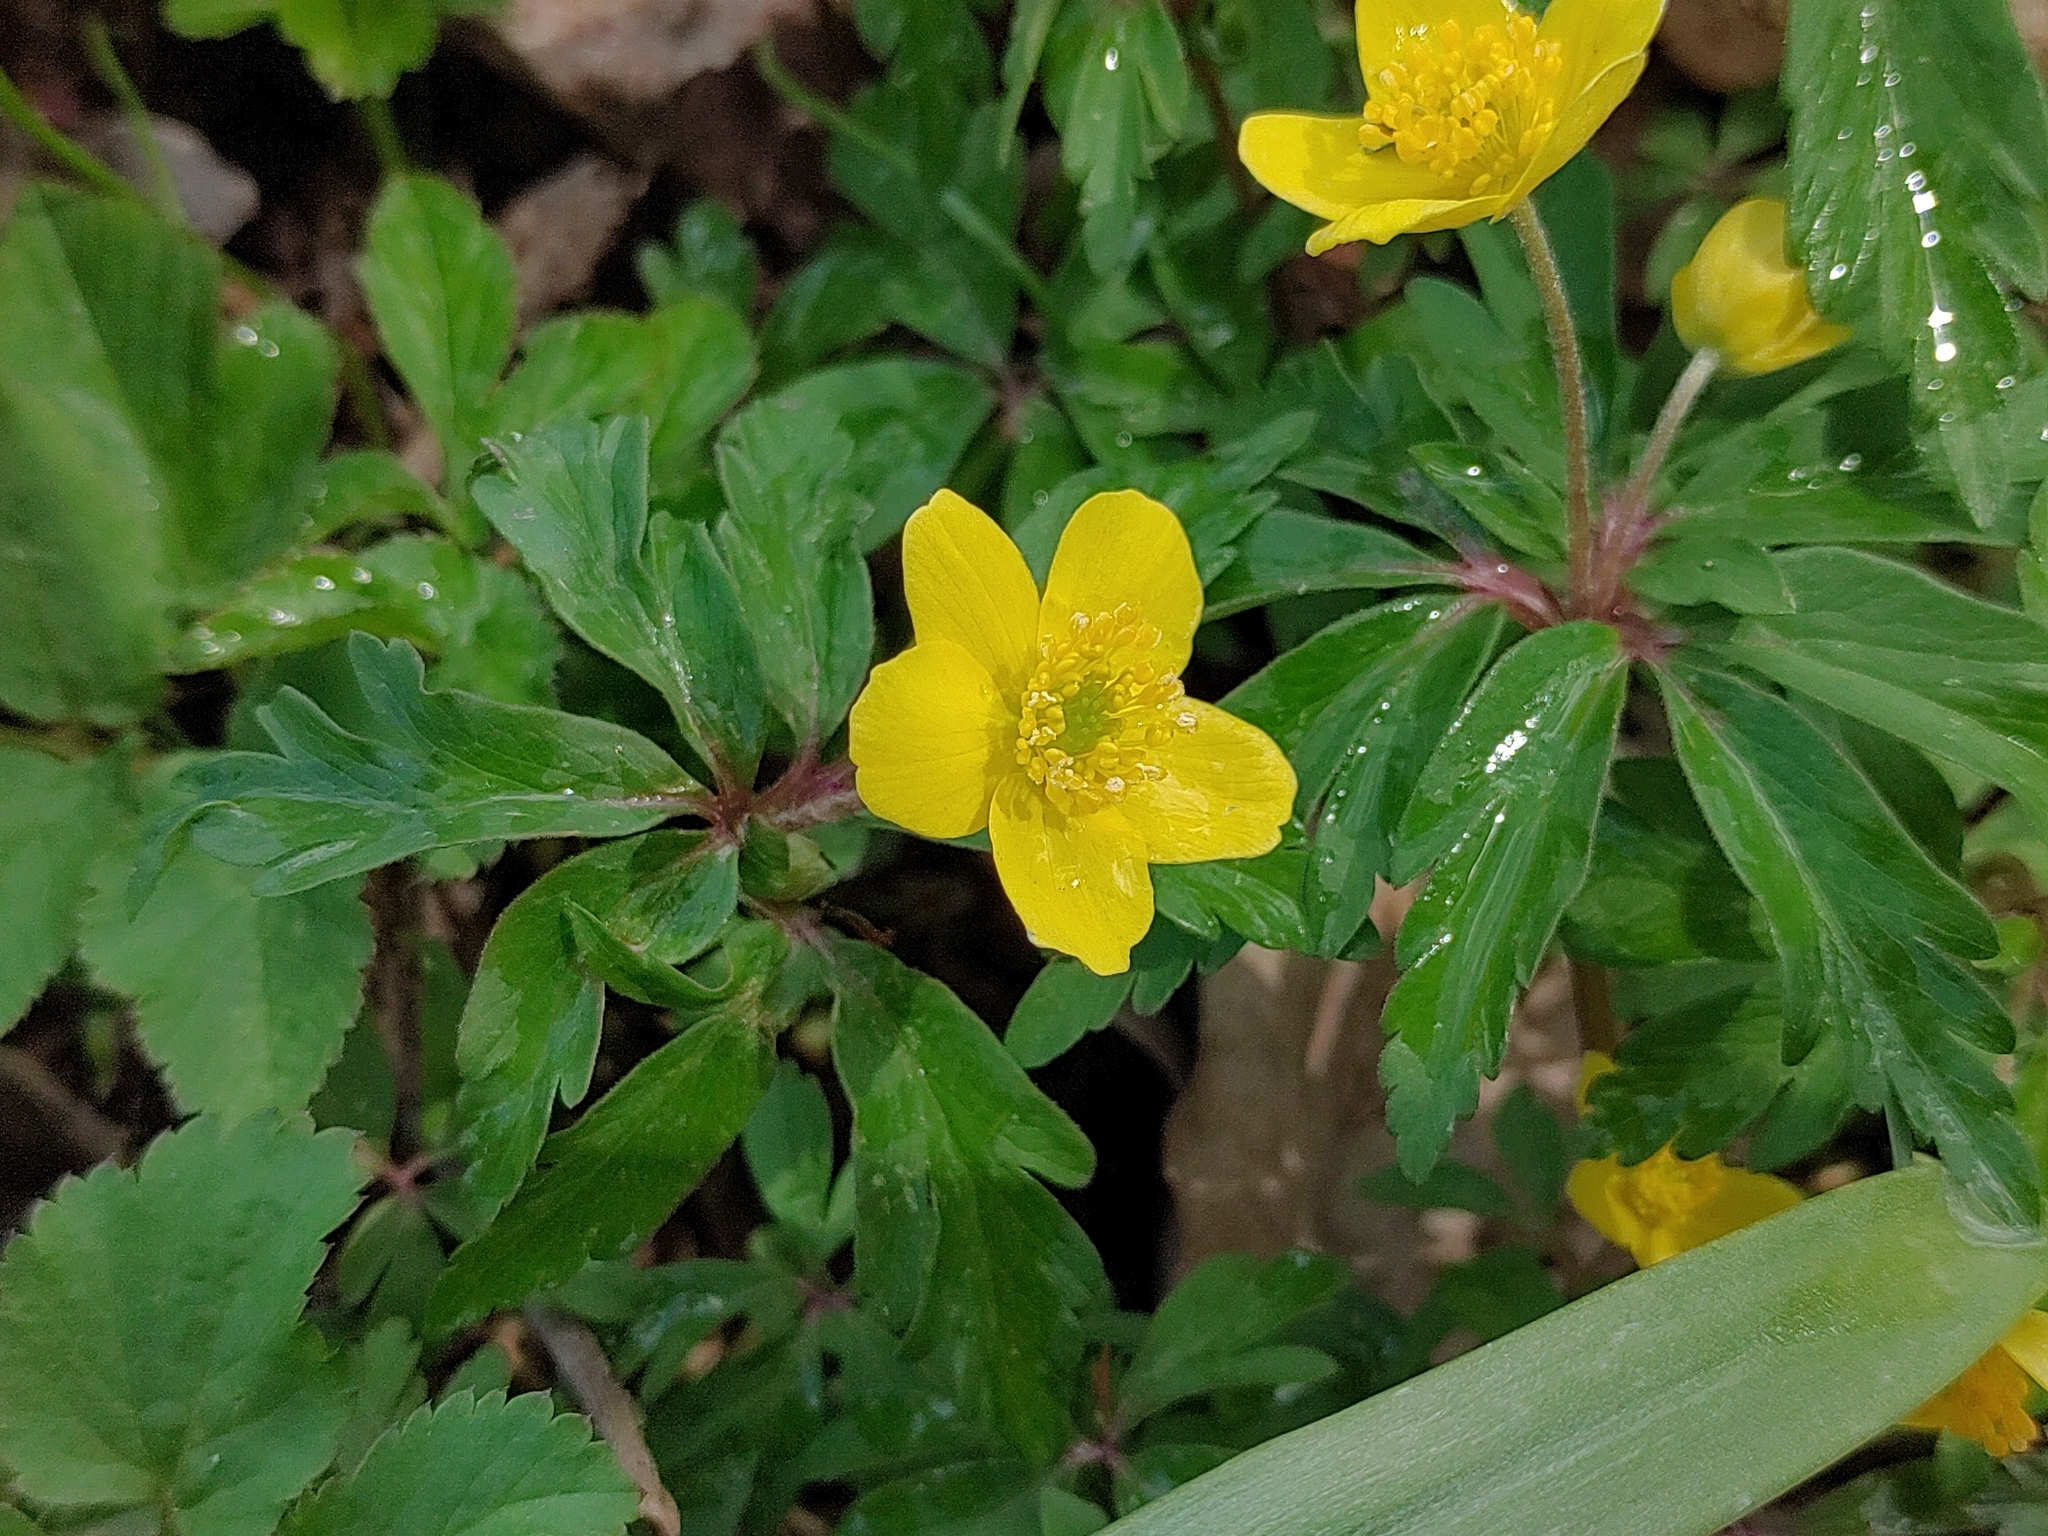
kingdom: Plantae
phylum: Tracheophyta
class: Magnoliopsida
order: Ranunculales
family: Ranunculaceae
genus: Anemone
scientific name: Anemone ranunculoides
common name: Yellow anemone
